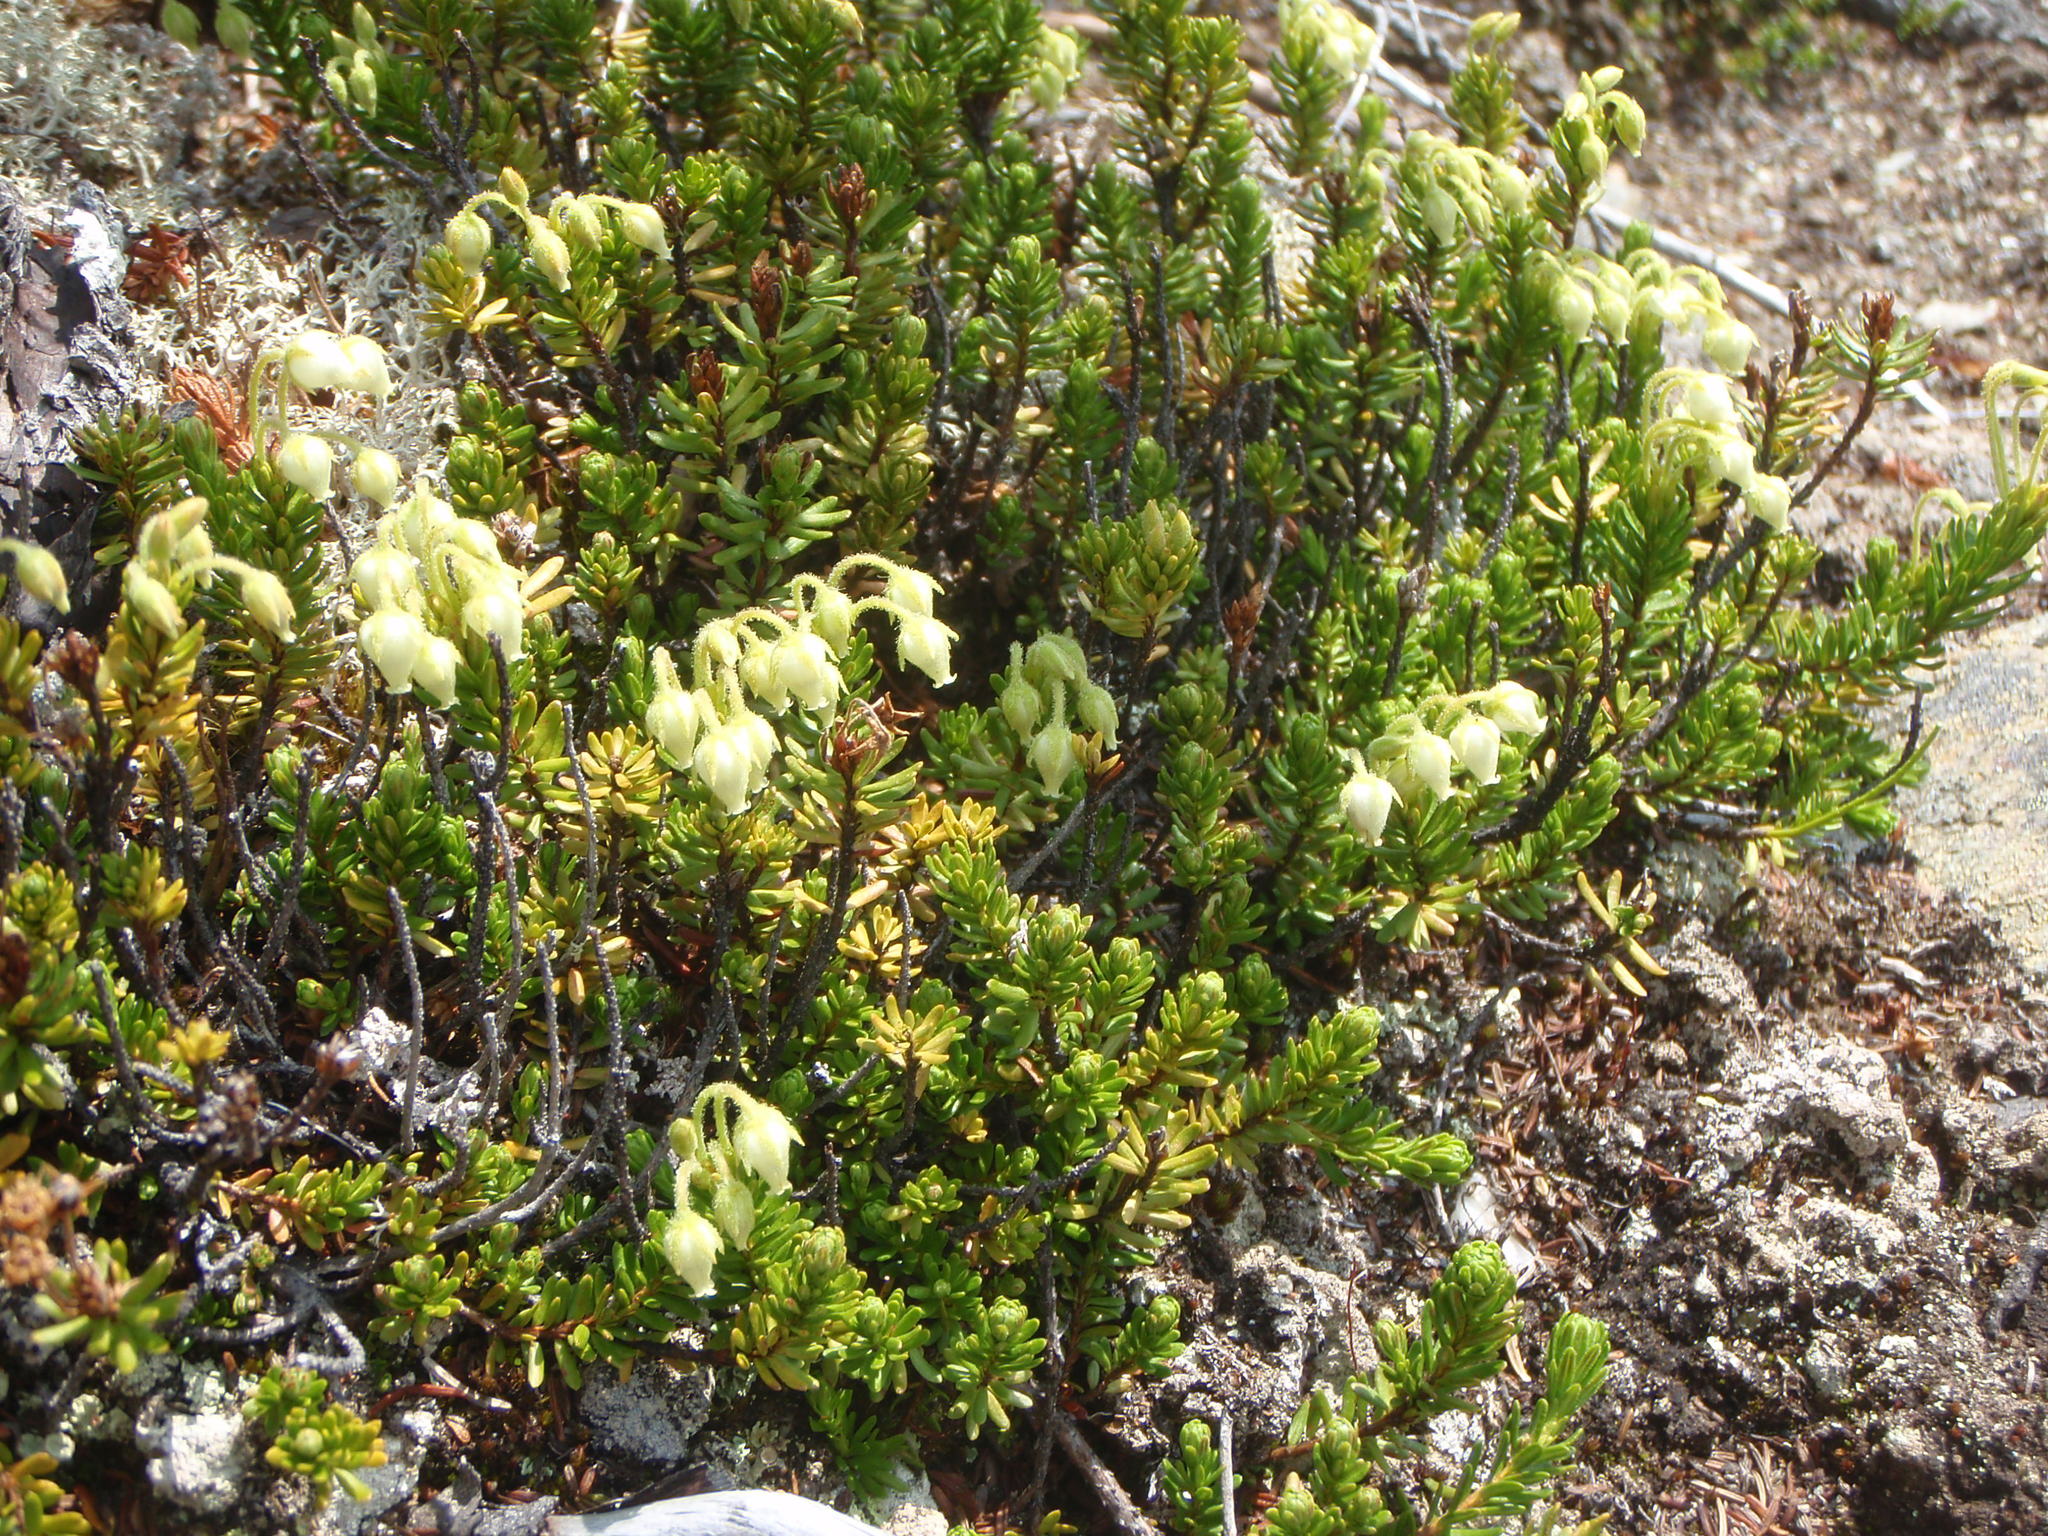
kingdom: Plantae
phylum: Tracheophyta
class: Magnoliopsida
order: Ericales
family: Ericaceae
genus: Phyllodoce
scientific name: Phyllodoce glanduliflora
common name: Cream mountain heather
